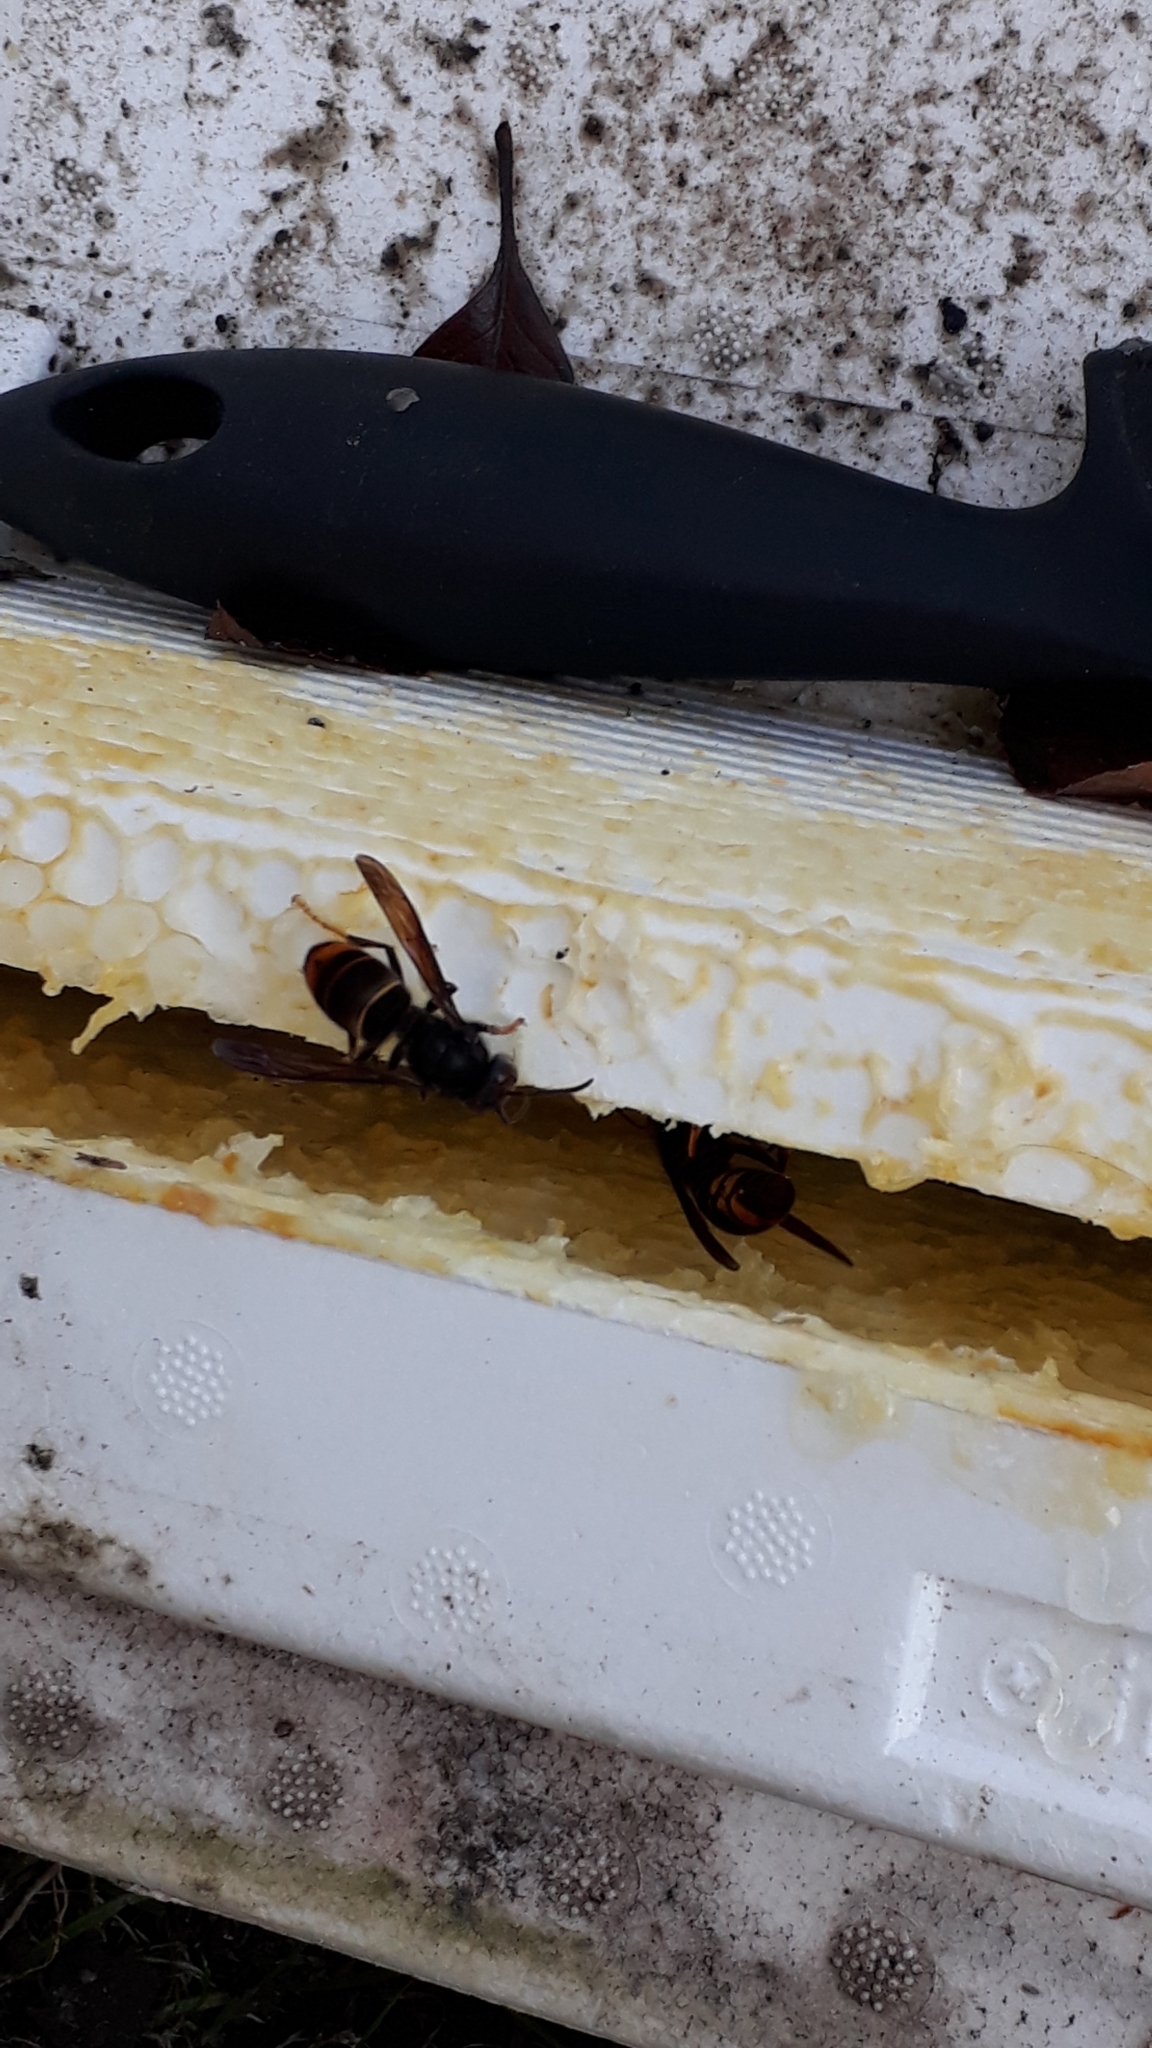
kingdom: Animalia
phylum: Arthropoda
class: Insecta
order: Hymenoptera
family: Vespidae
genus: Vespa
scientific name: Vespa velutina
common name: Asian hornet
